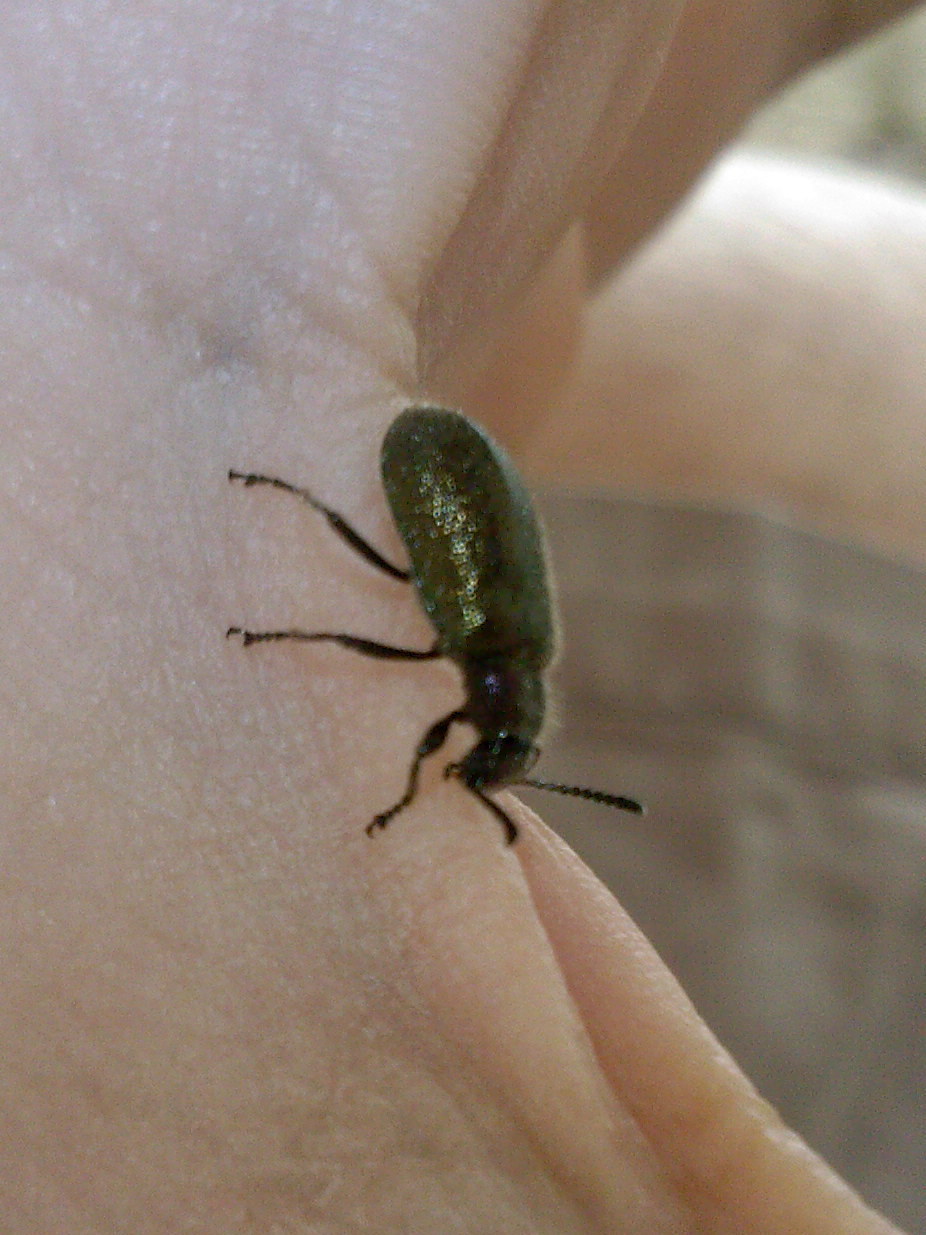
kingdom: Animalia
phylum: Arthropoda
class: Insecta
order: Coleoptera
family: Tenebrionidae
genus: Lagria
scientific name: Lagria villosa
